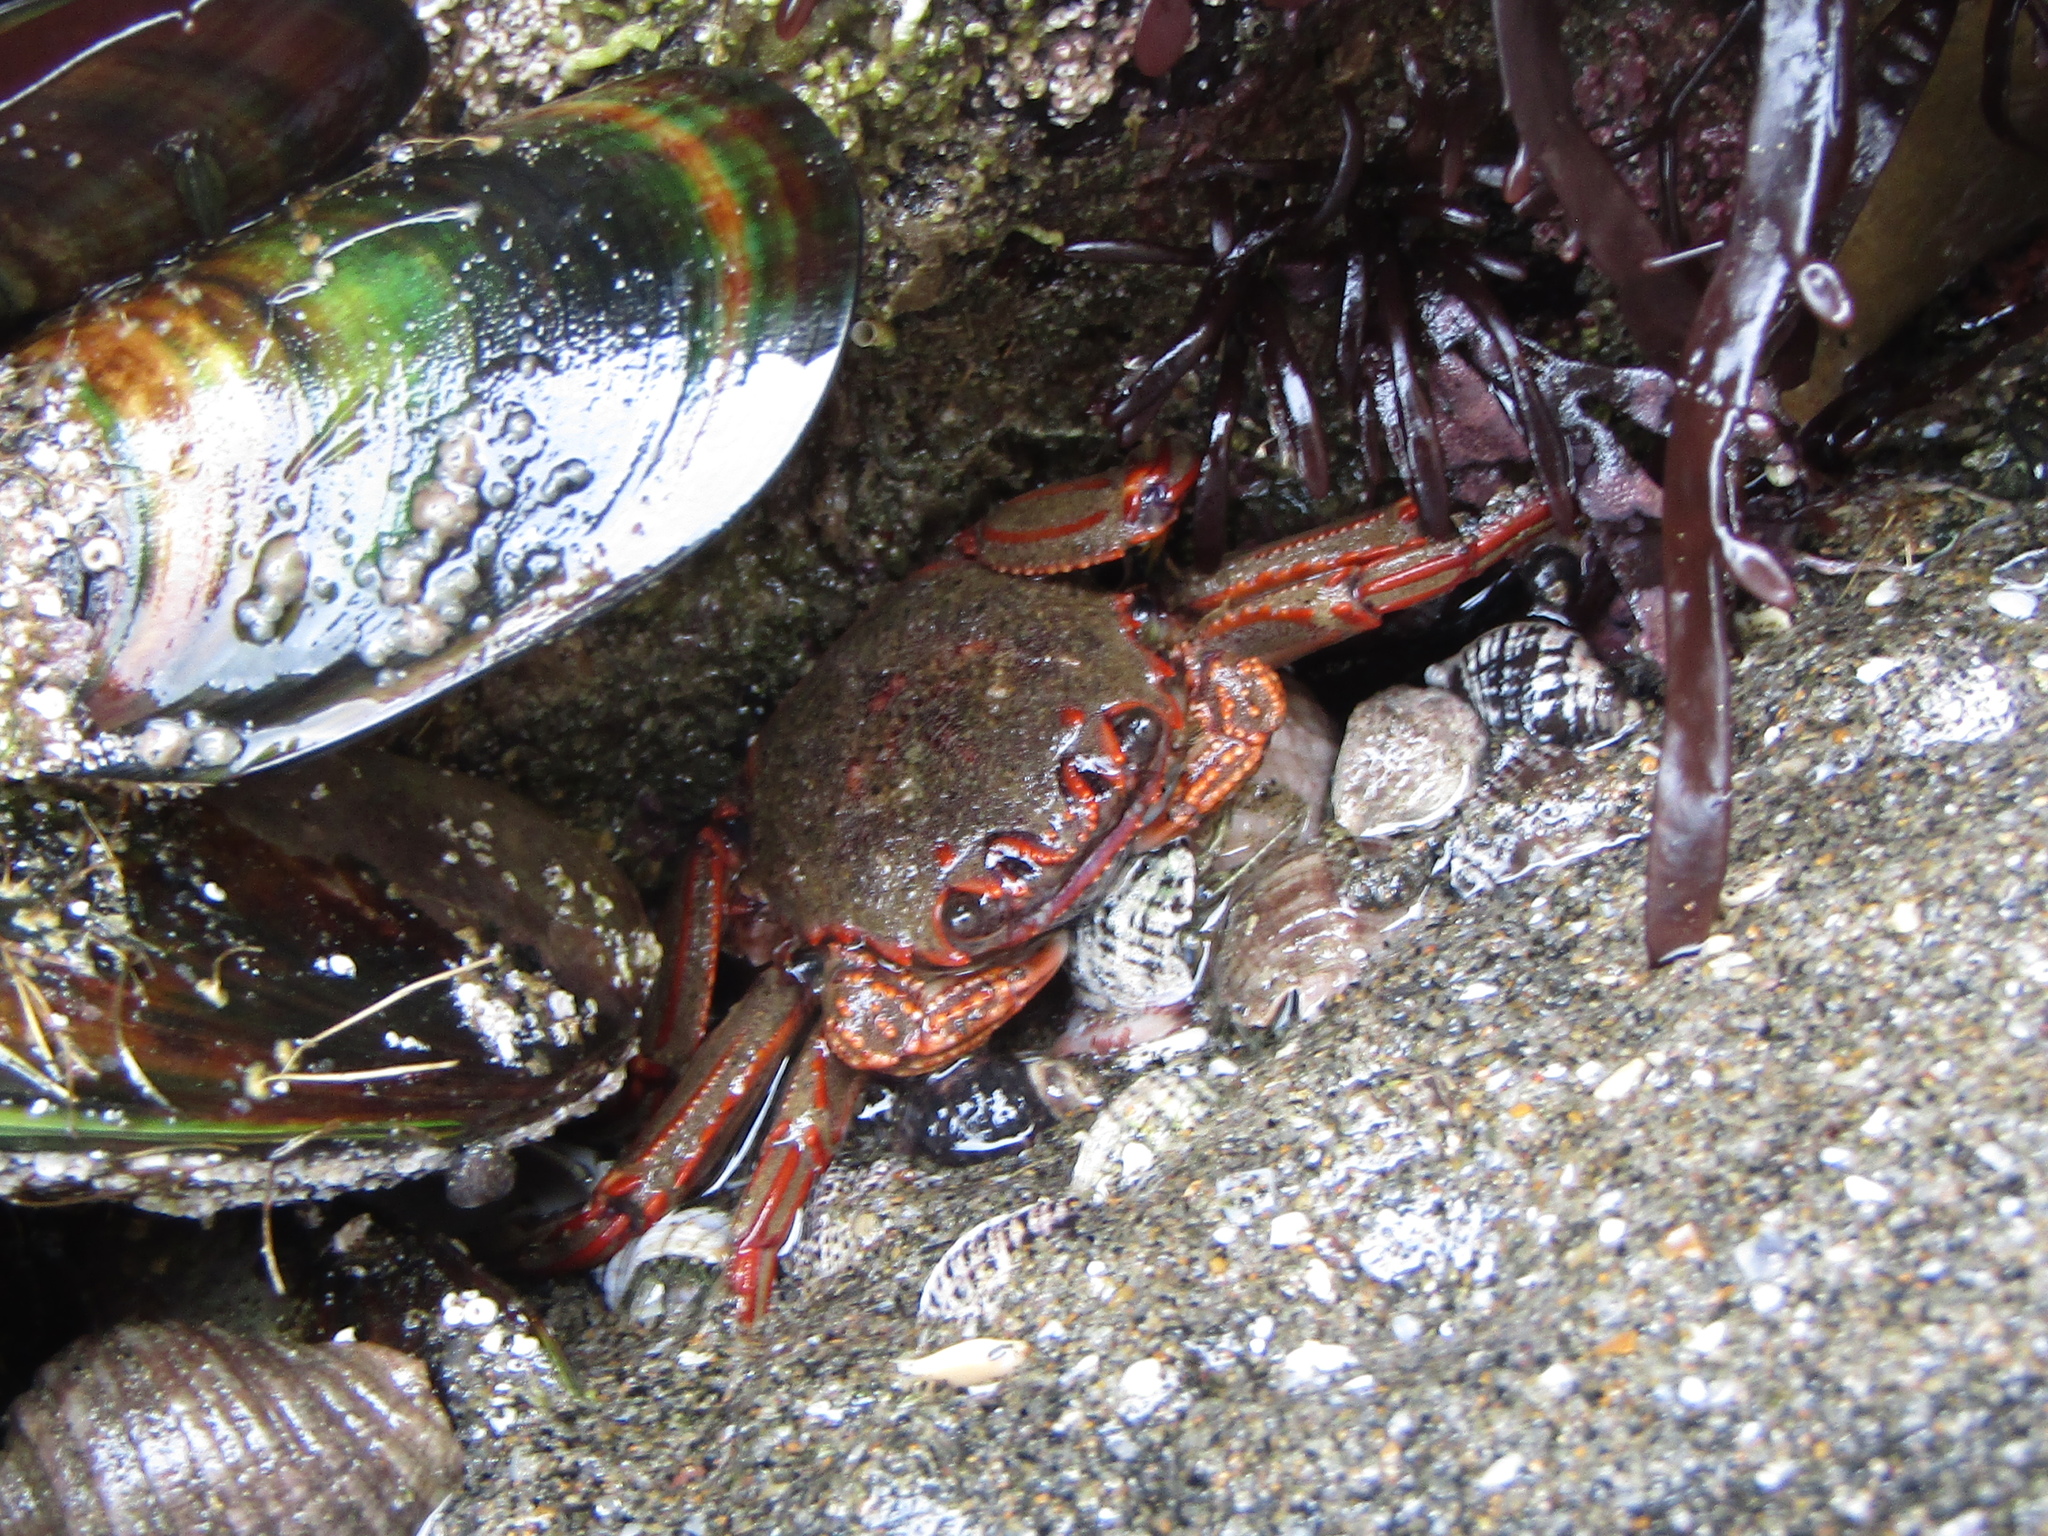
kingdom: Animalia
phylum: Arthropoda
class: Malacostraca
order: Decapoda
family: Plagusiidae
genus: Guinusia
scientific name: Guinusia chabrus
